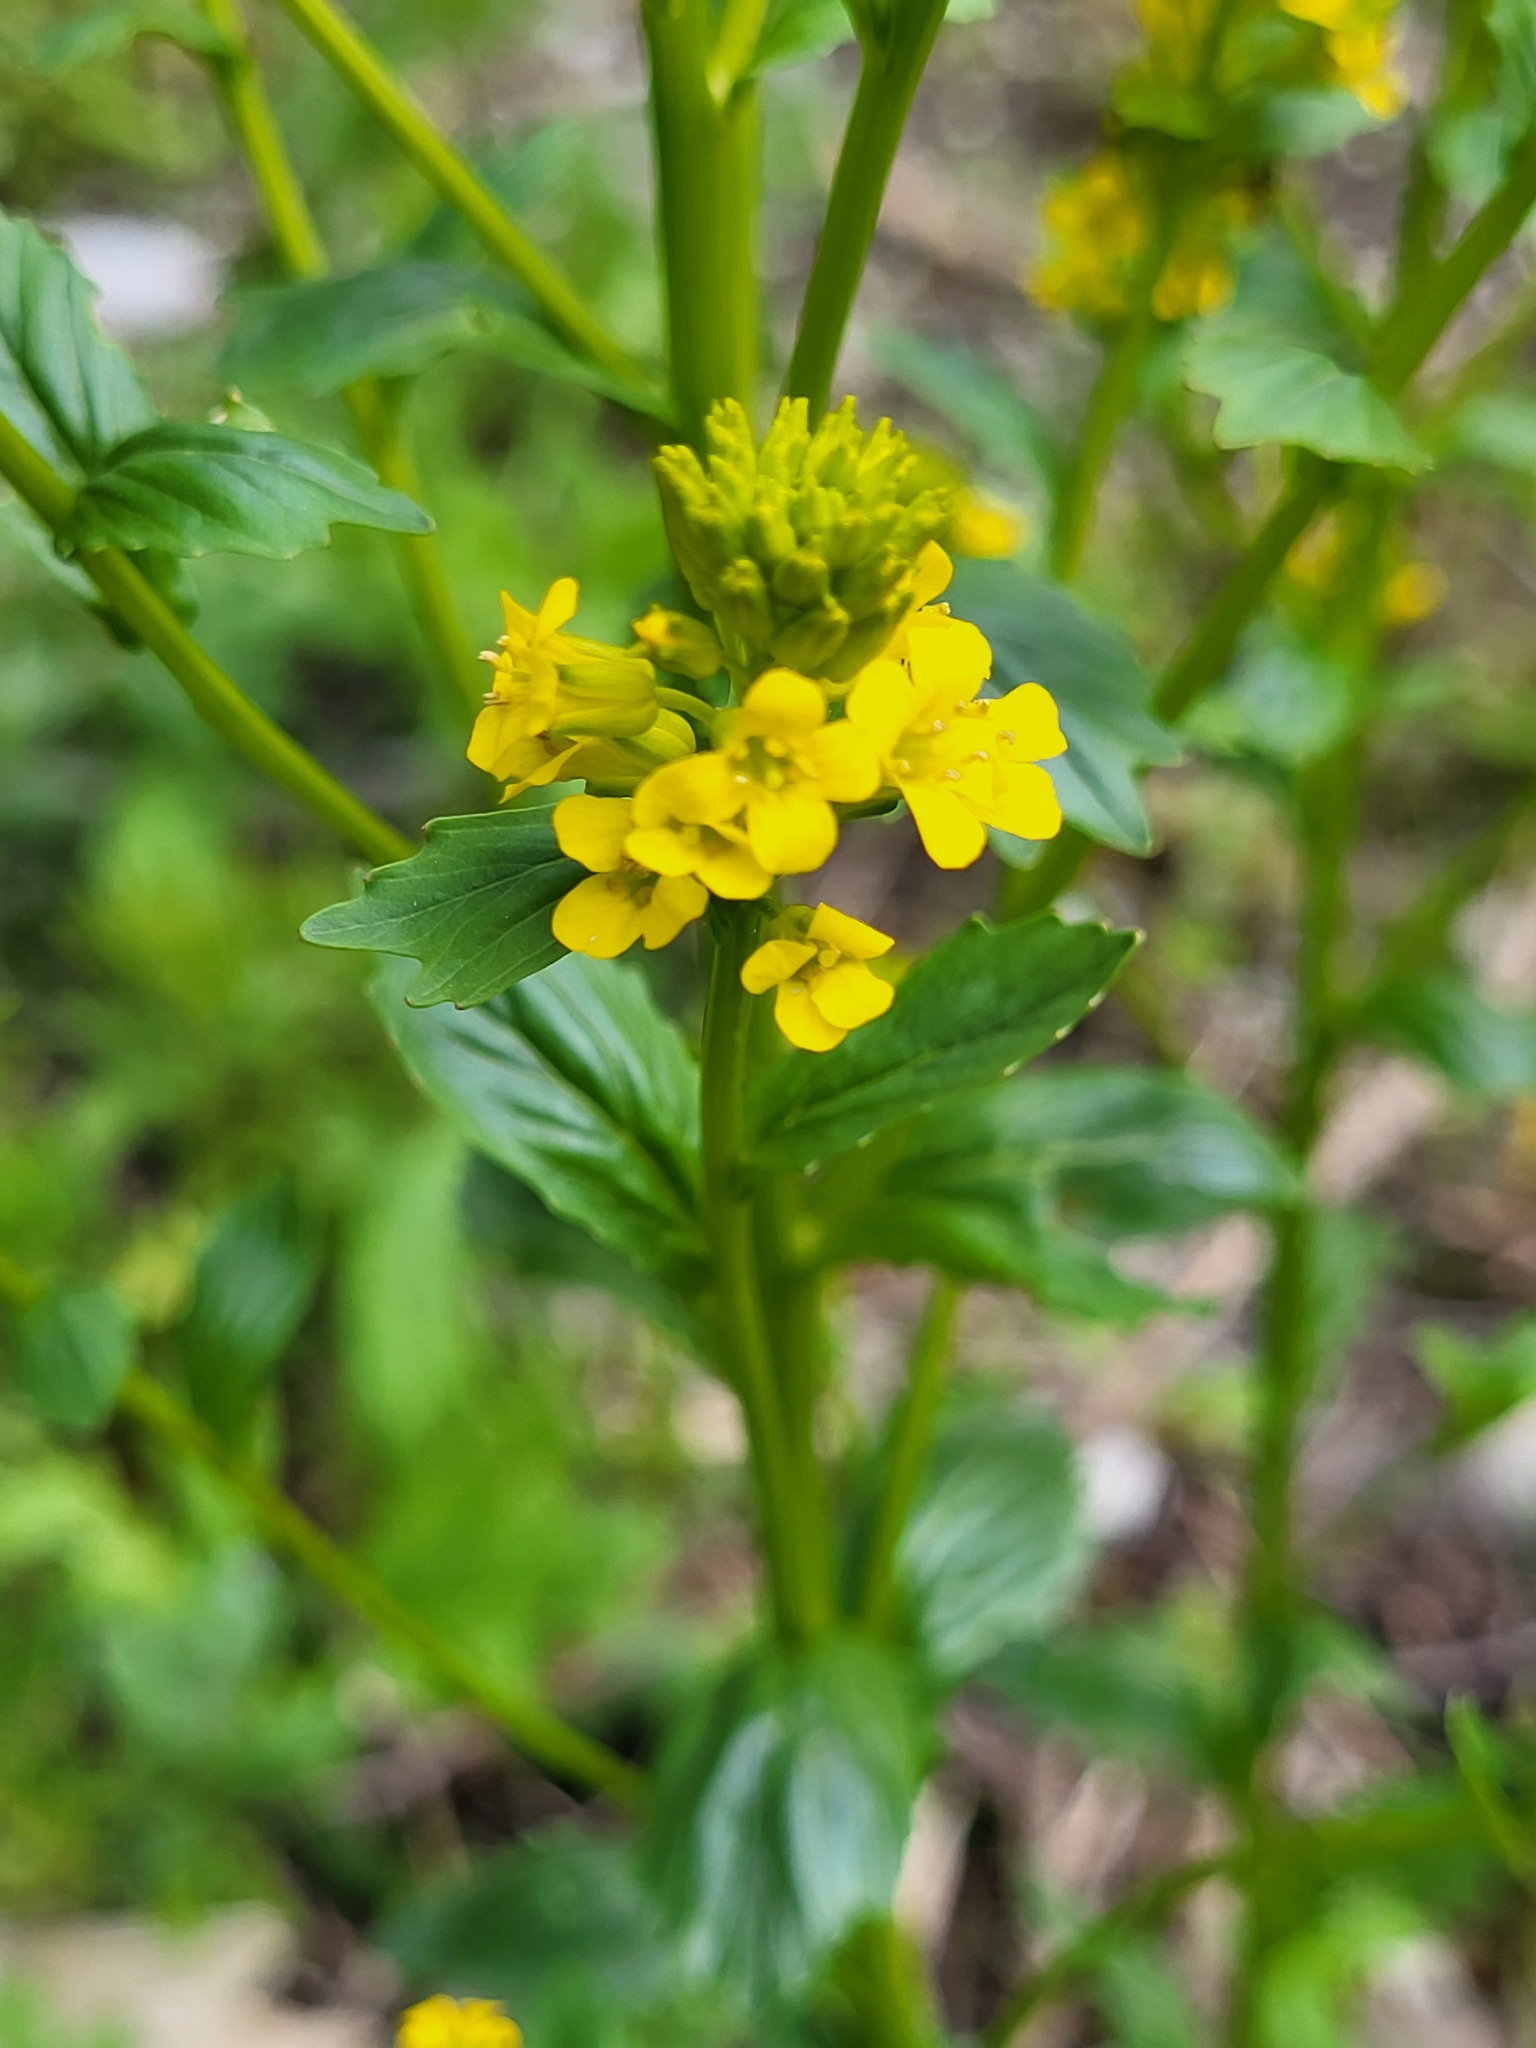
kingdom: Plantae
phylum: Tracheophyta
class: Magnoliopsida
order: Brassicales
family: Brassicaceae
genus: Barbarea
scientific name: Barbarea vulgaris
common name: Cressy-greens
